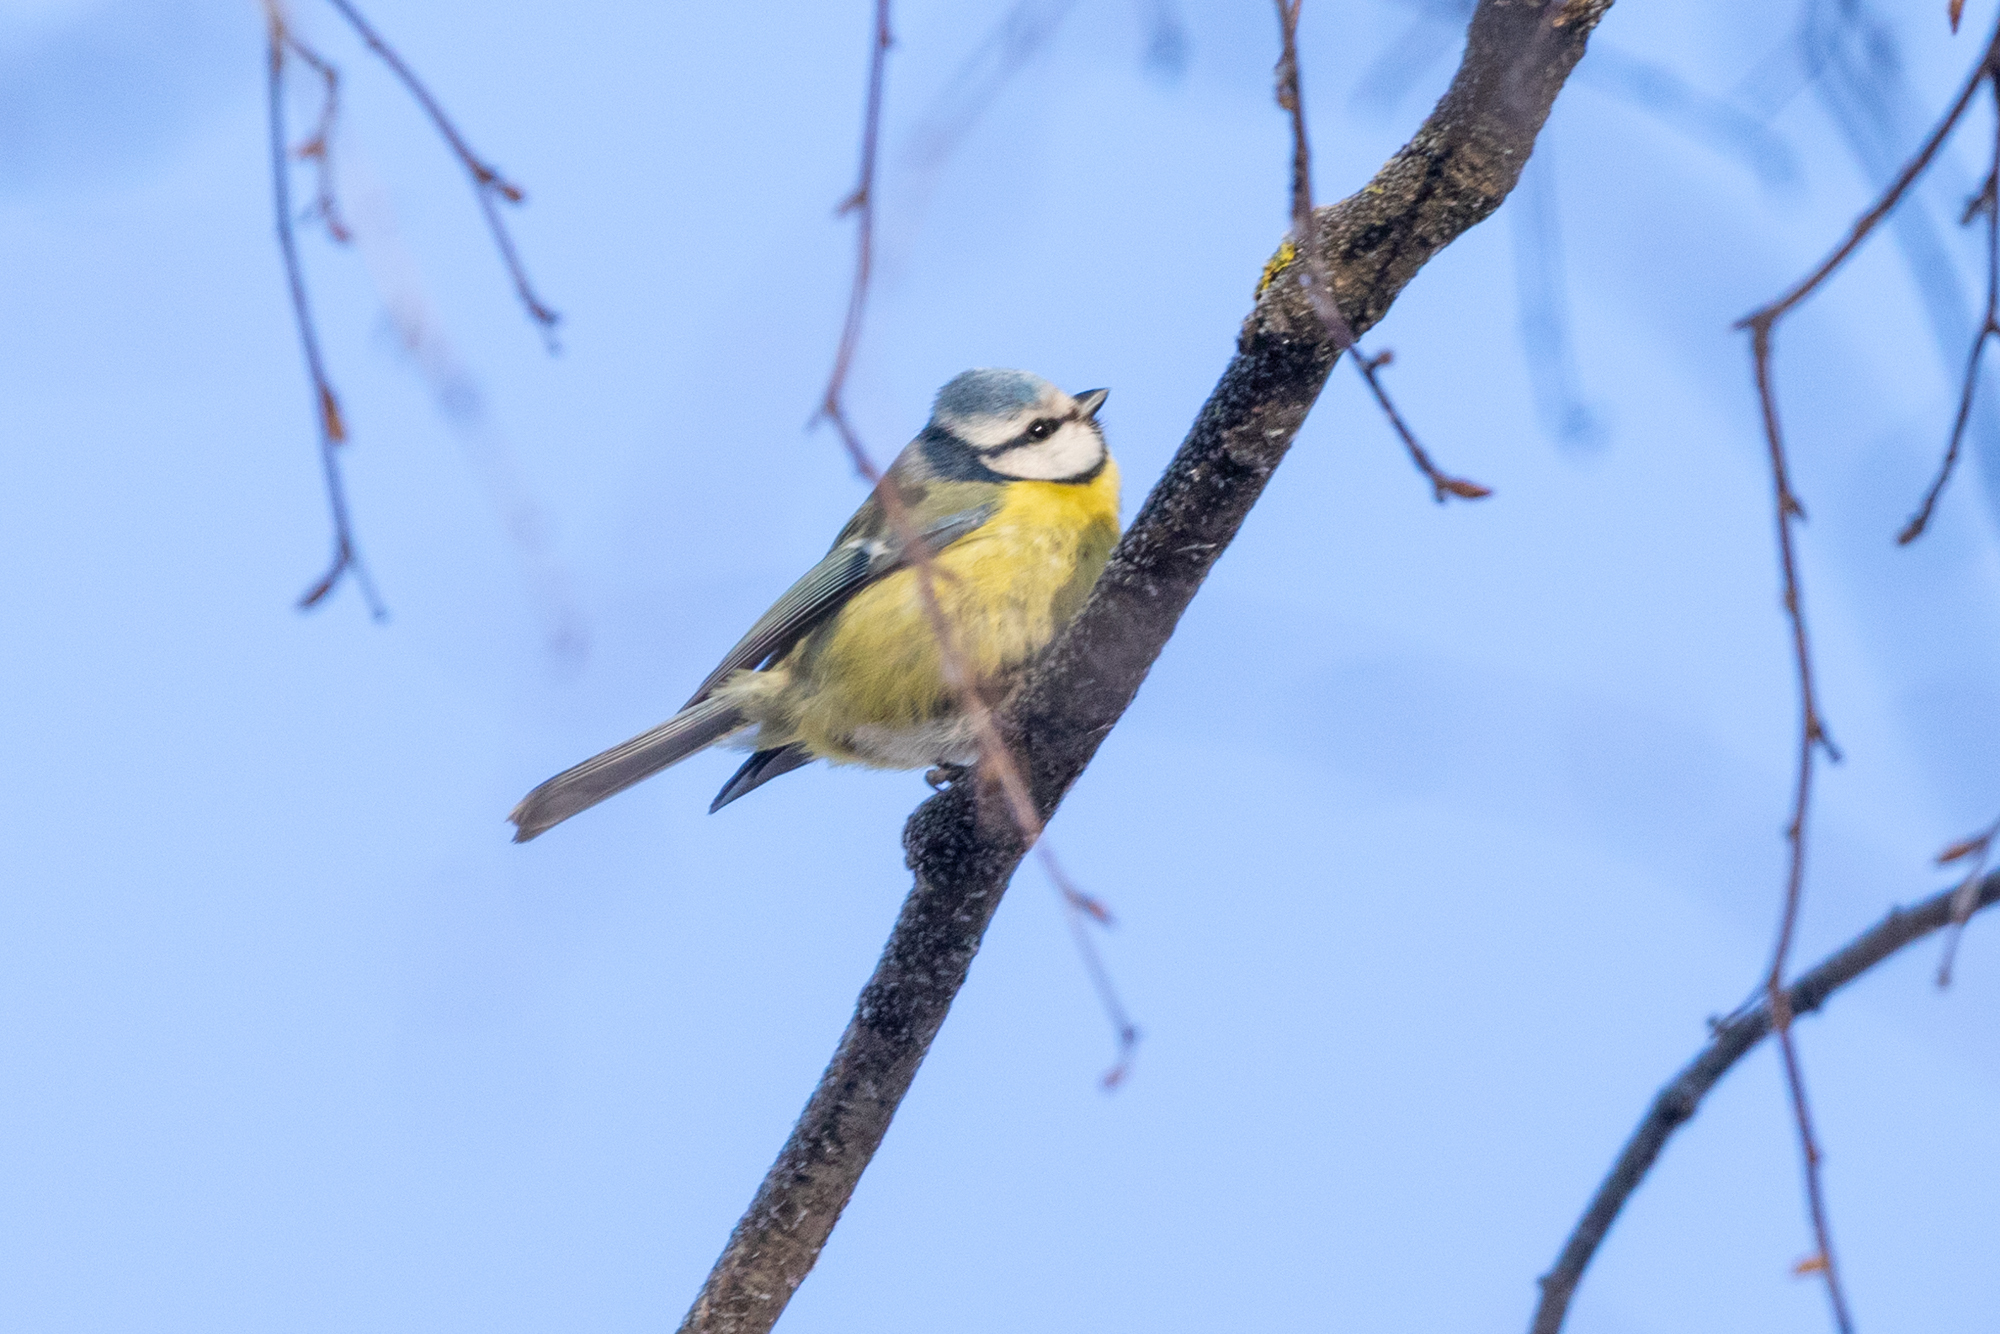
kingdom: Animalia
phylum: Chordata
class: Aves
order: Passeriformes
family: Paridae
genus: Cyanistes
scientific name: Cyanistes caeruleus
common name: Eurasian blue tit
